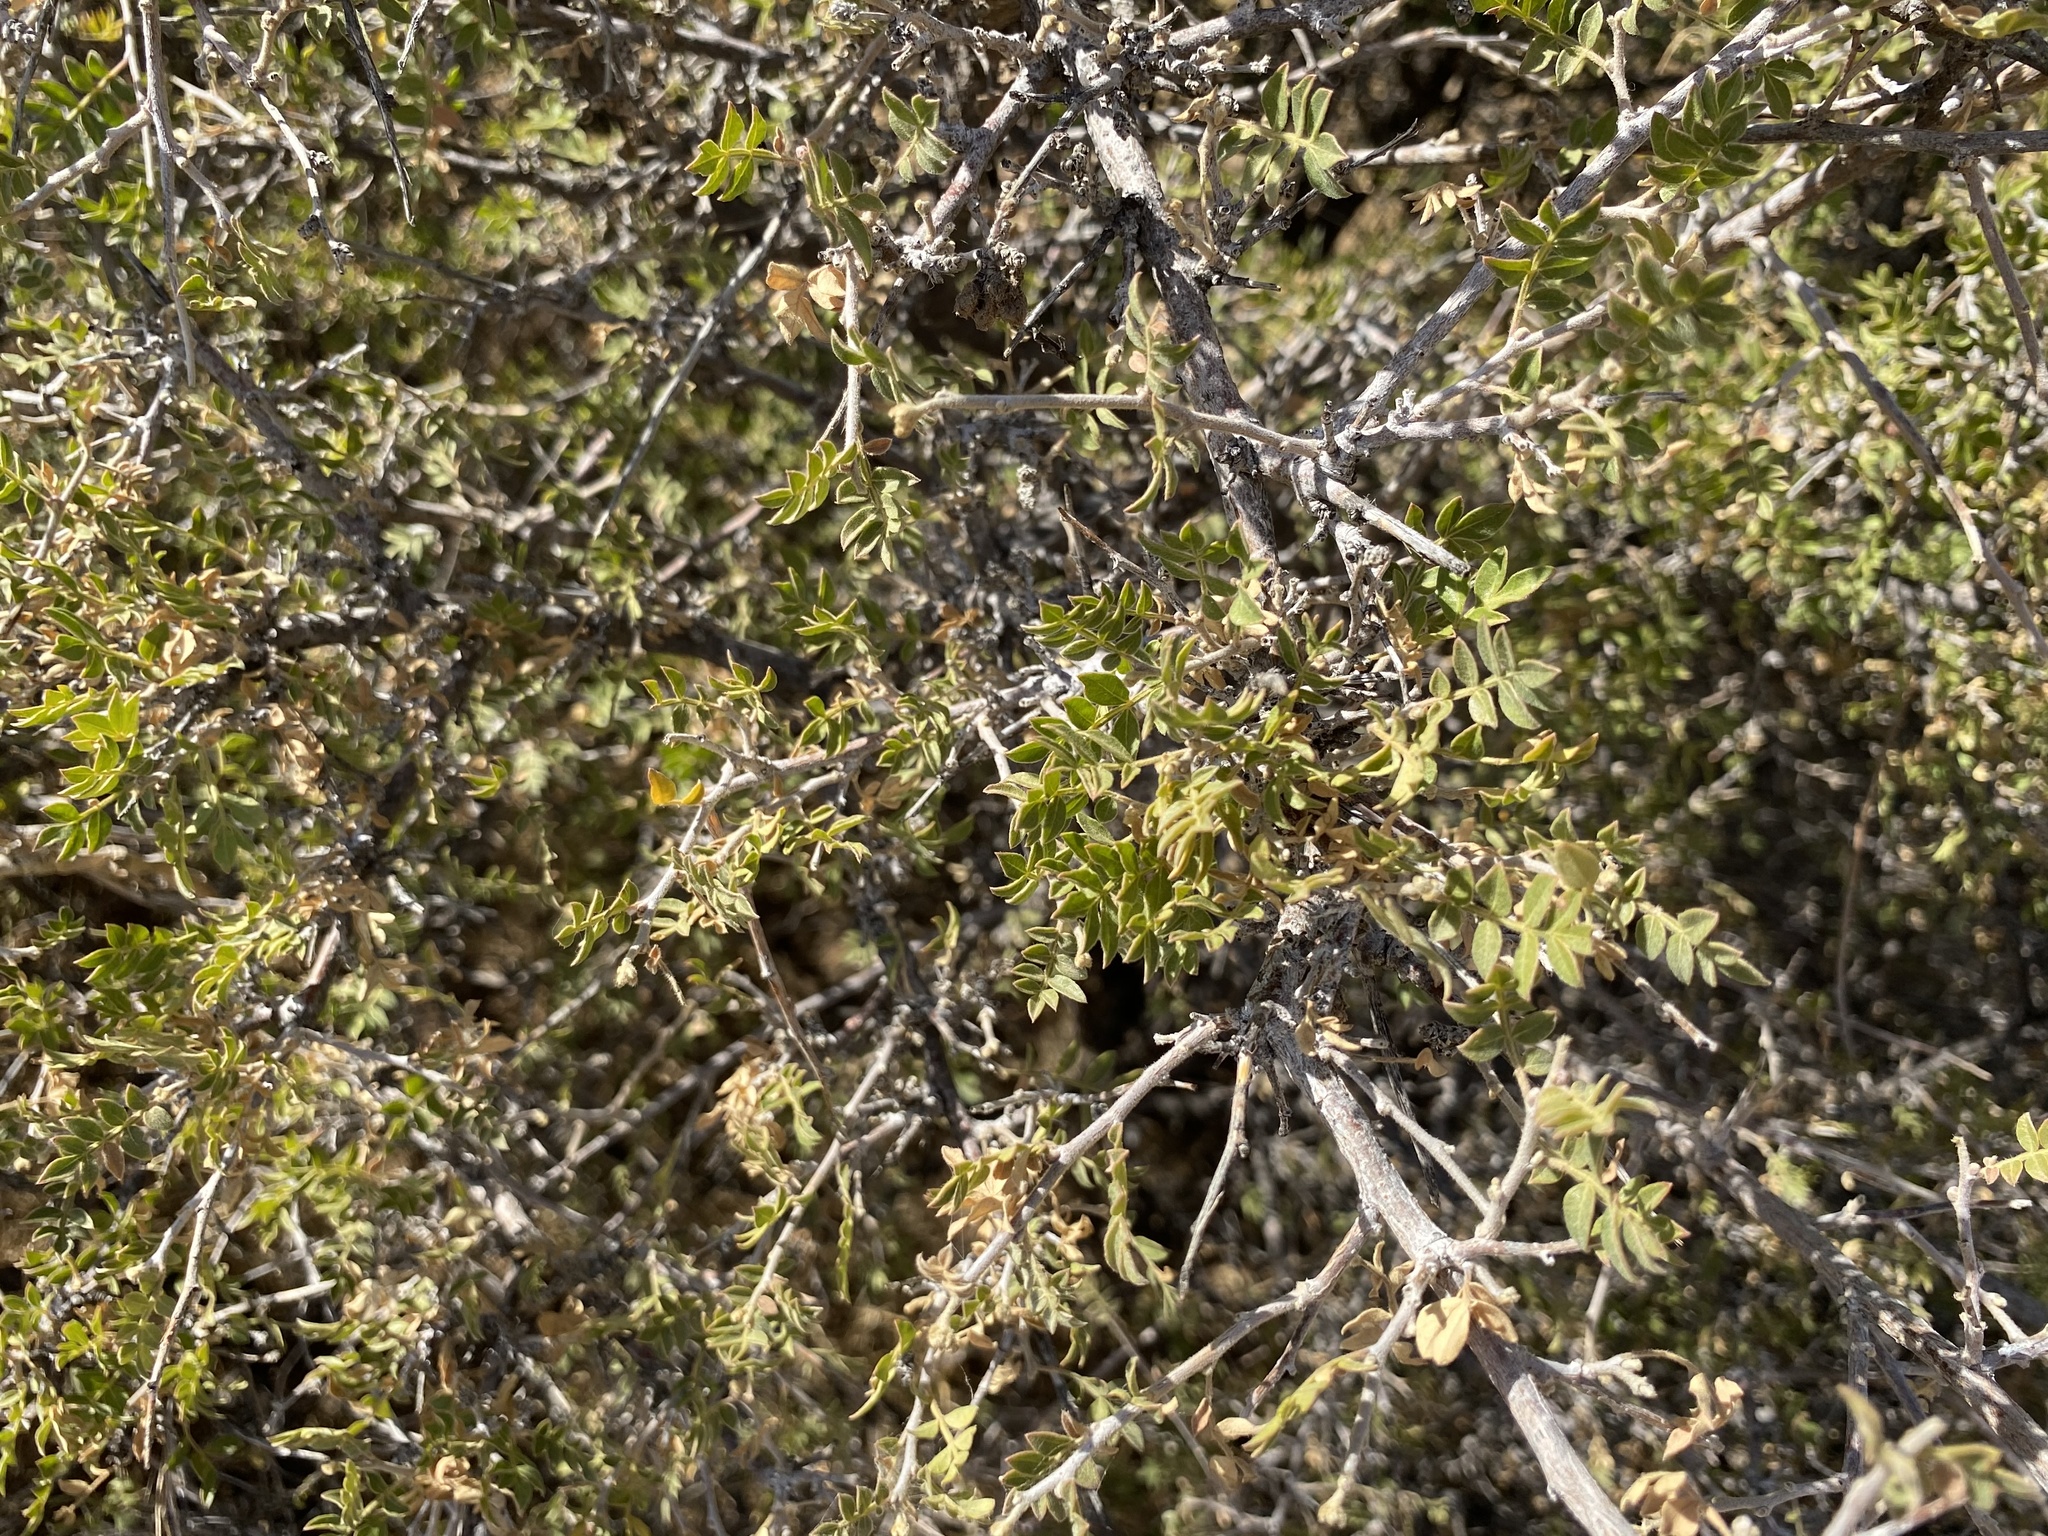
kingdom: Plantae
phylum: Tracheophyta
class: Magnoliopsida
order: Sapindales
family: Anacardiaceae
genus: Rhus
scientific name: Rhus microphylla
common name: Desert sumac
